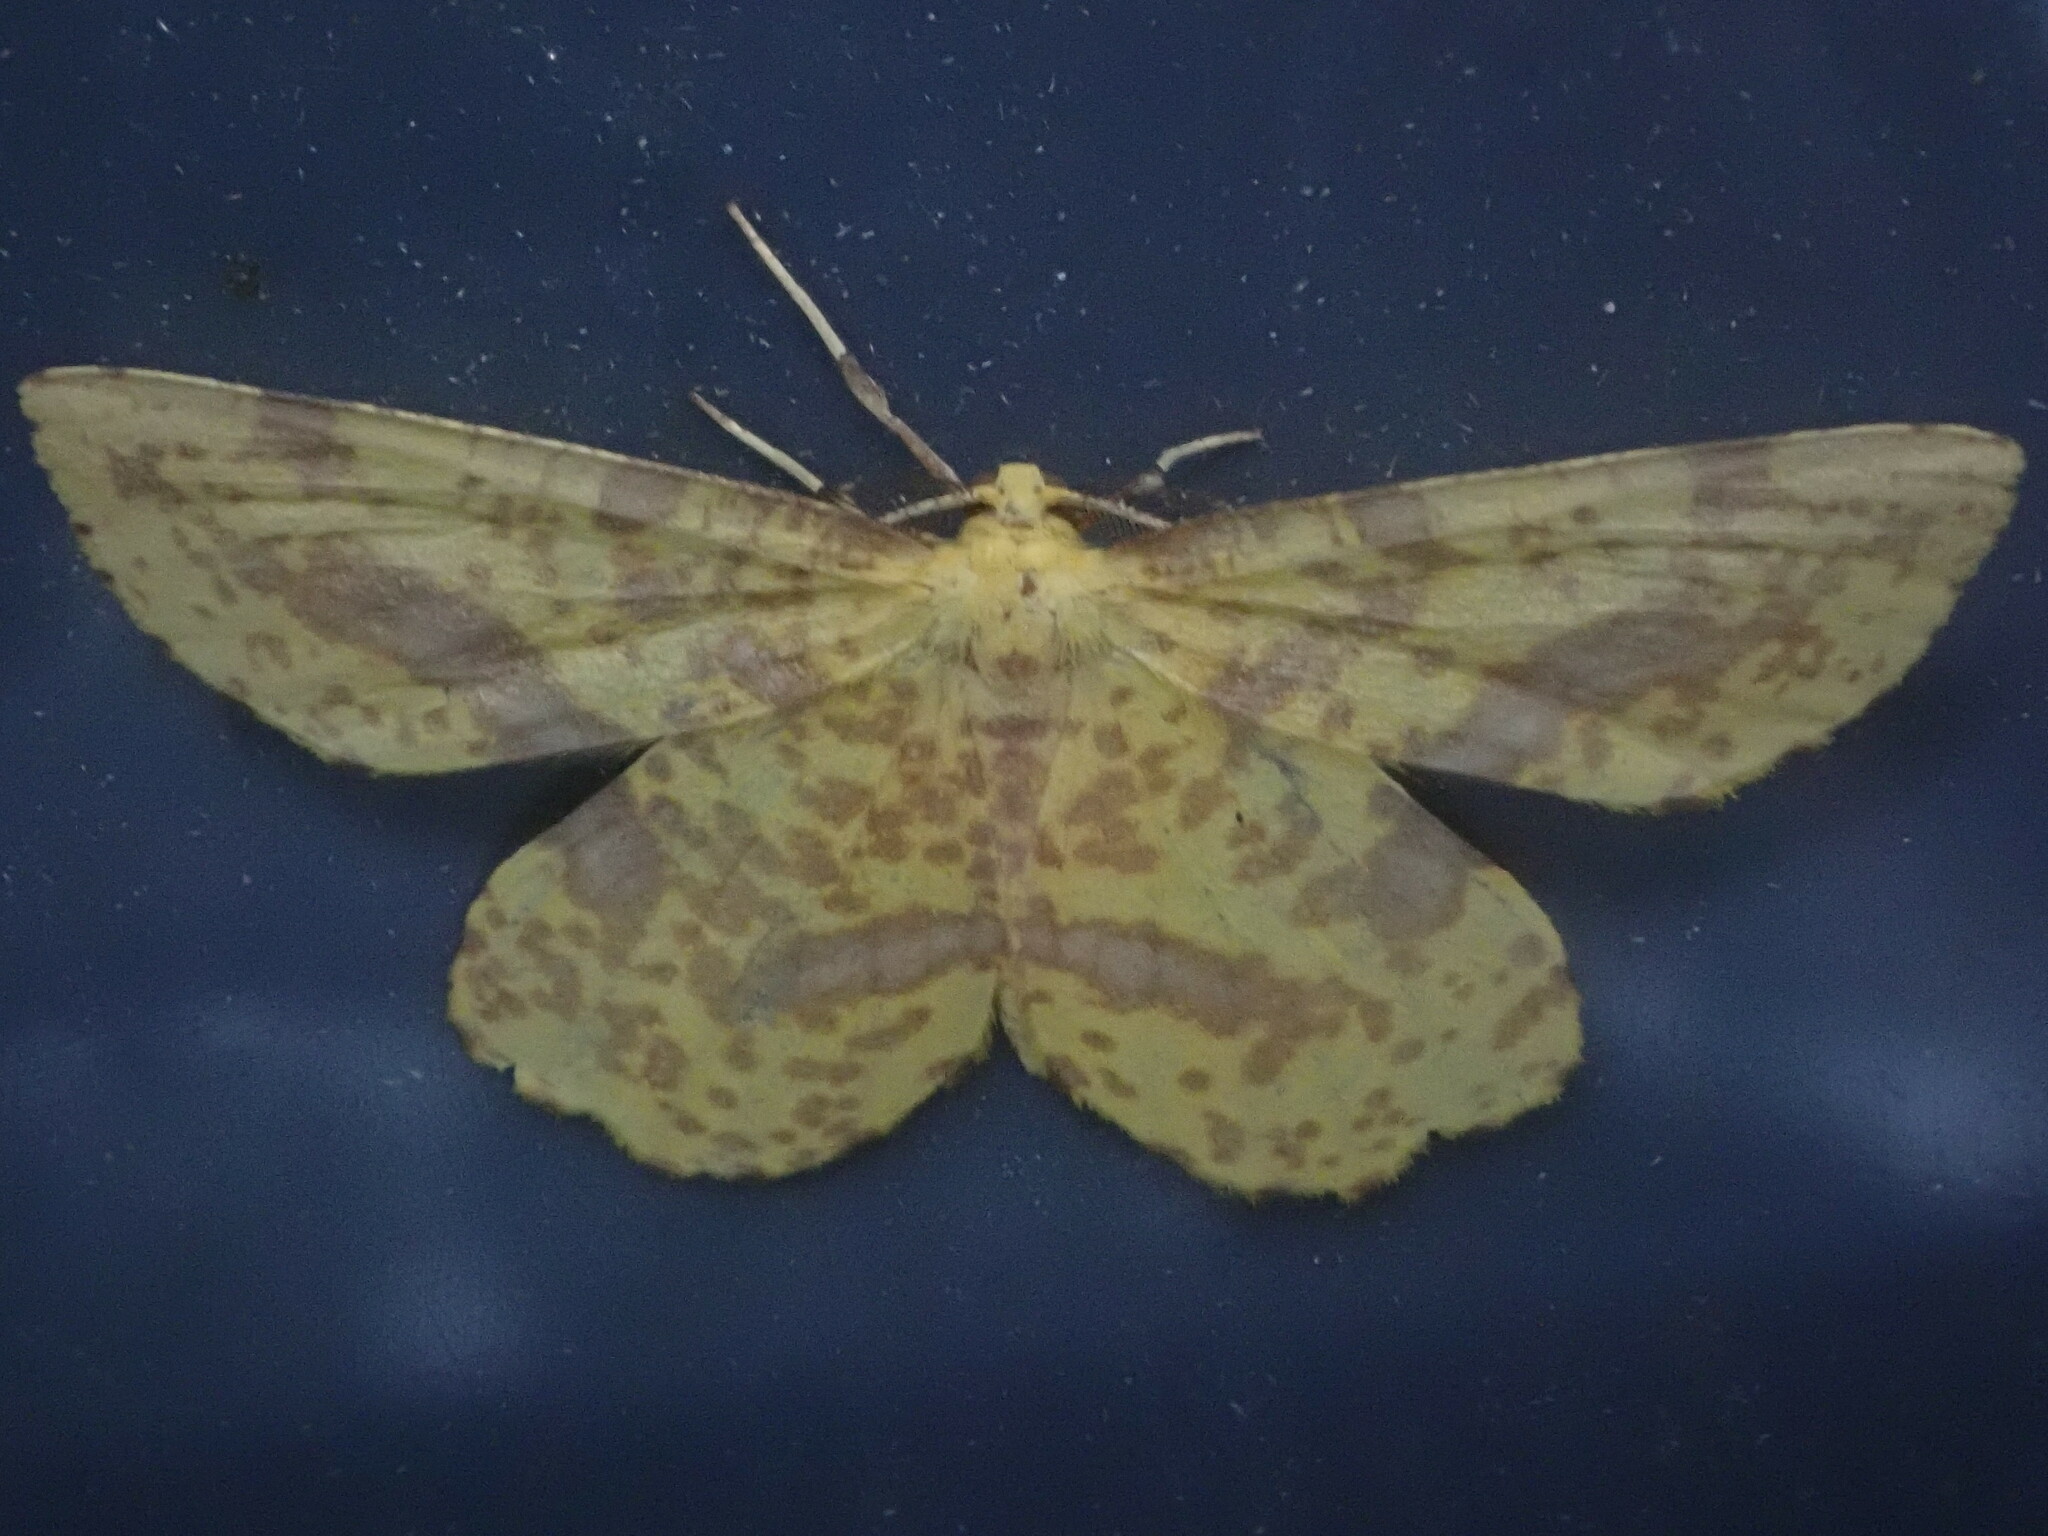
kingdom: Animalia
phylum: Arthropoda
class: Insecta
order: Lepidoptera
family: Geometridae
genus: Xanthotype
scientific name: Xanthotype
